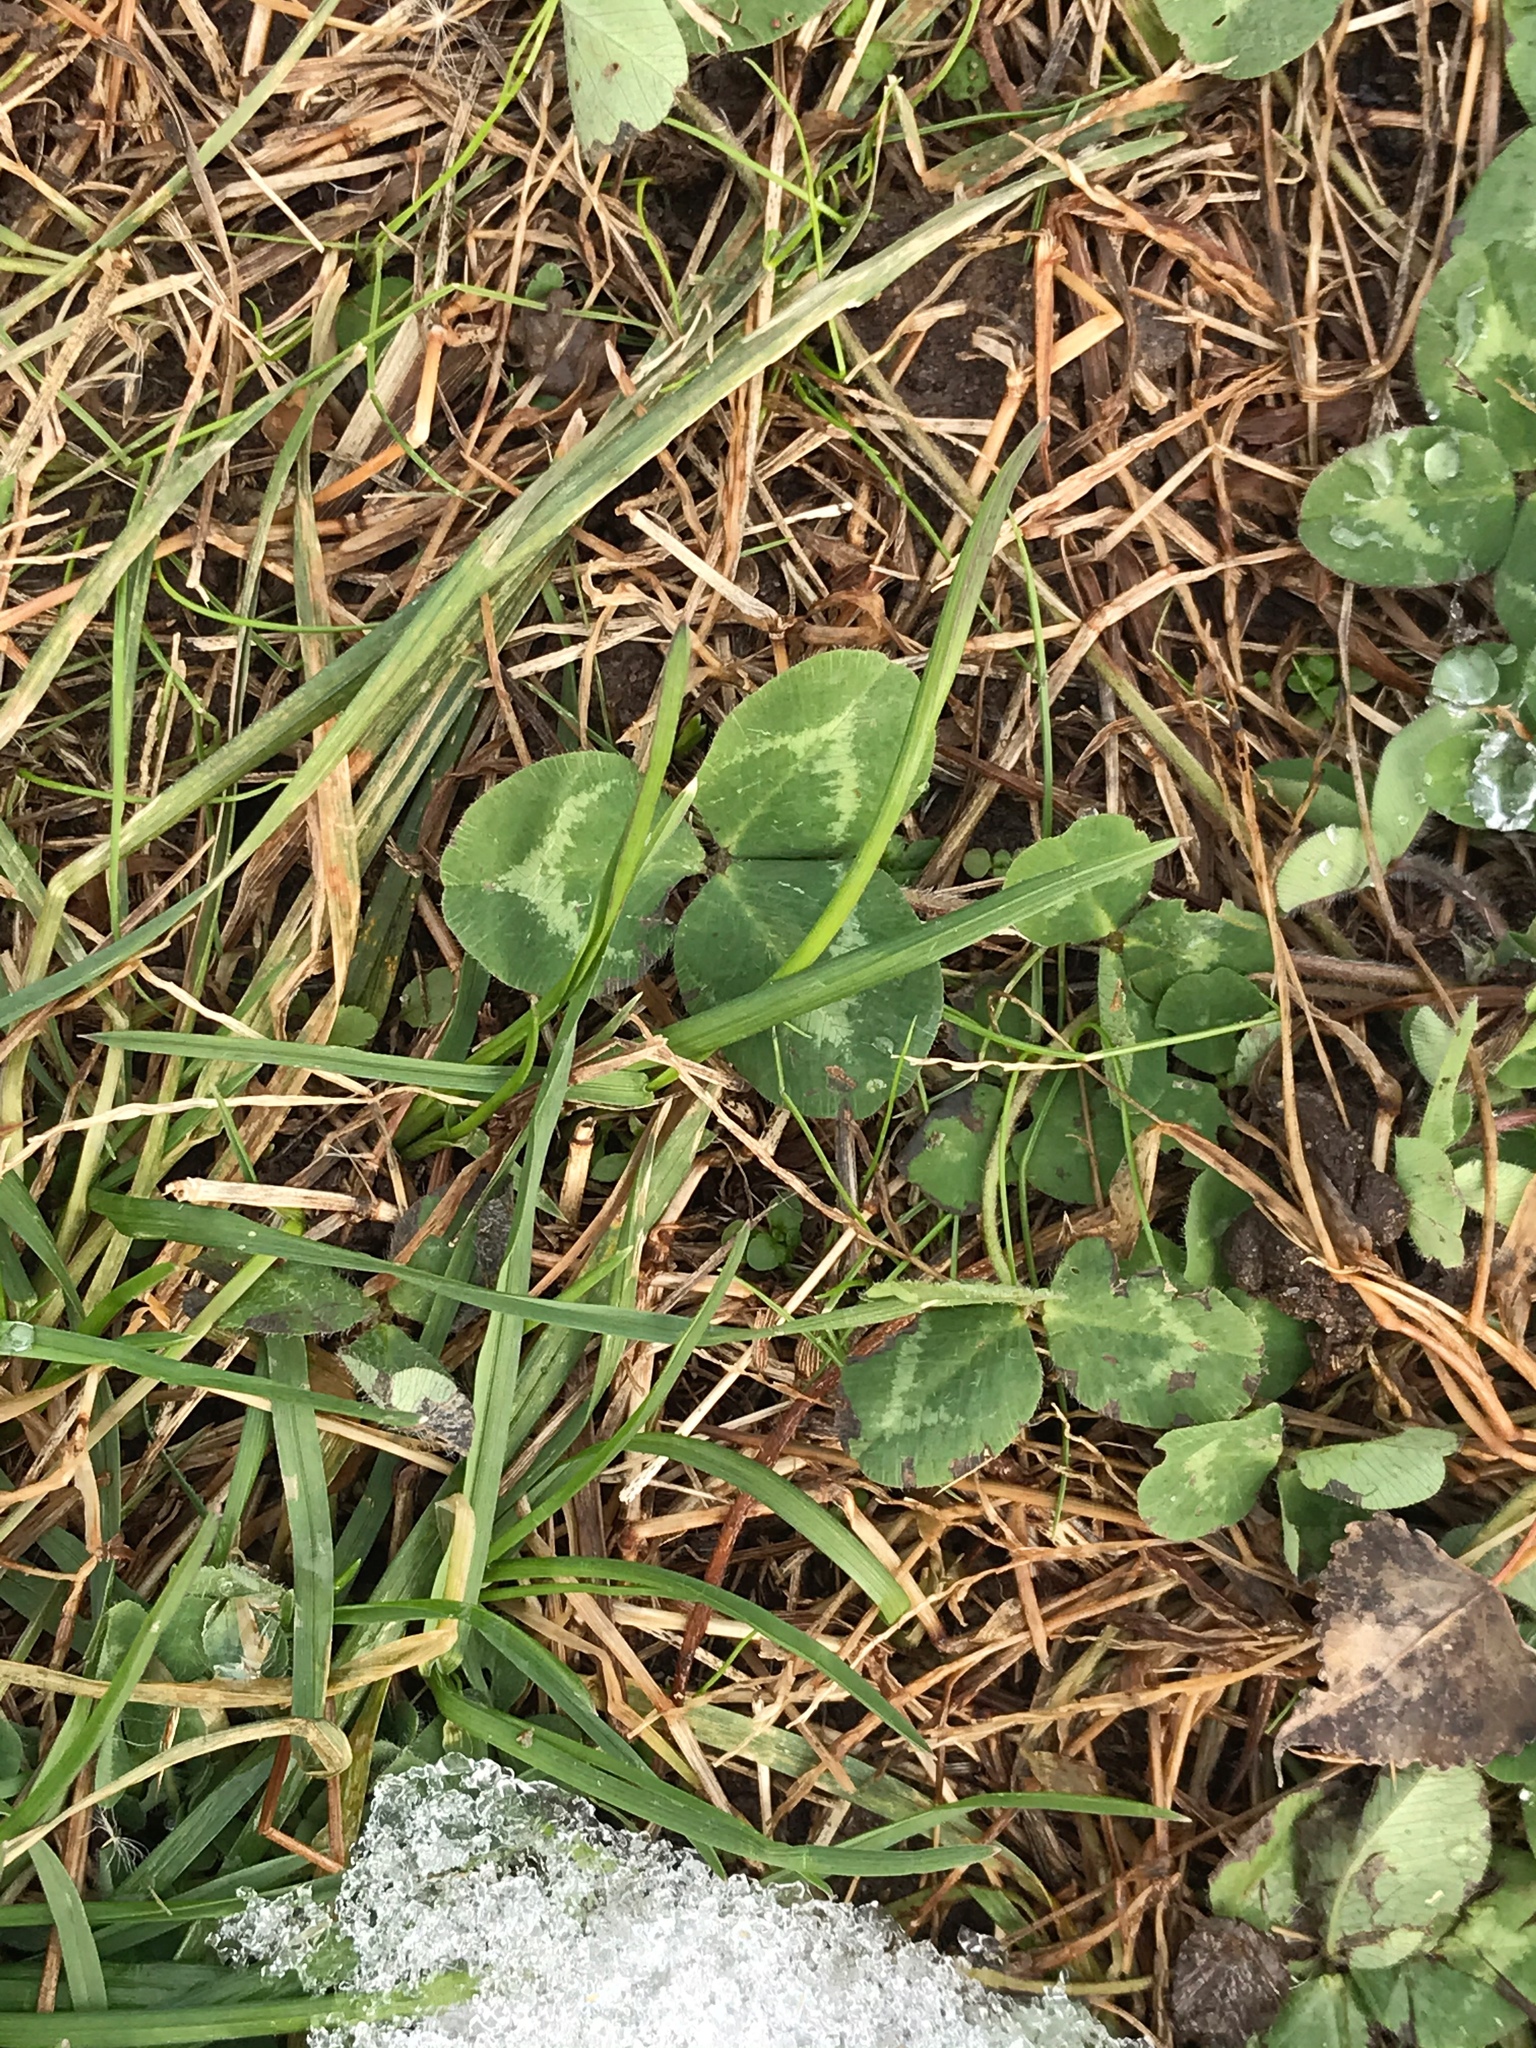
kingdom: Plantae
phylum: Tracheophyta
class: Magnoliopsida
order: Fabales
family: Fabaceae
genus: Trifolium
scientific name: Trifolium pratense
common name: Red clover
